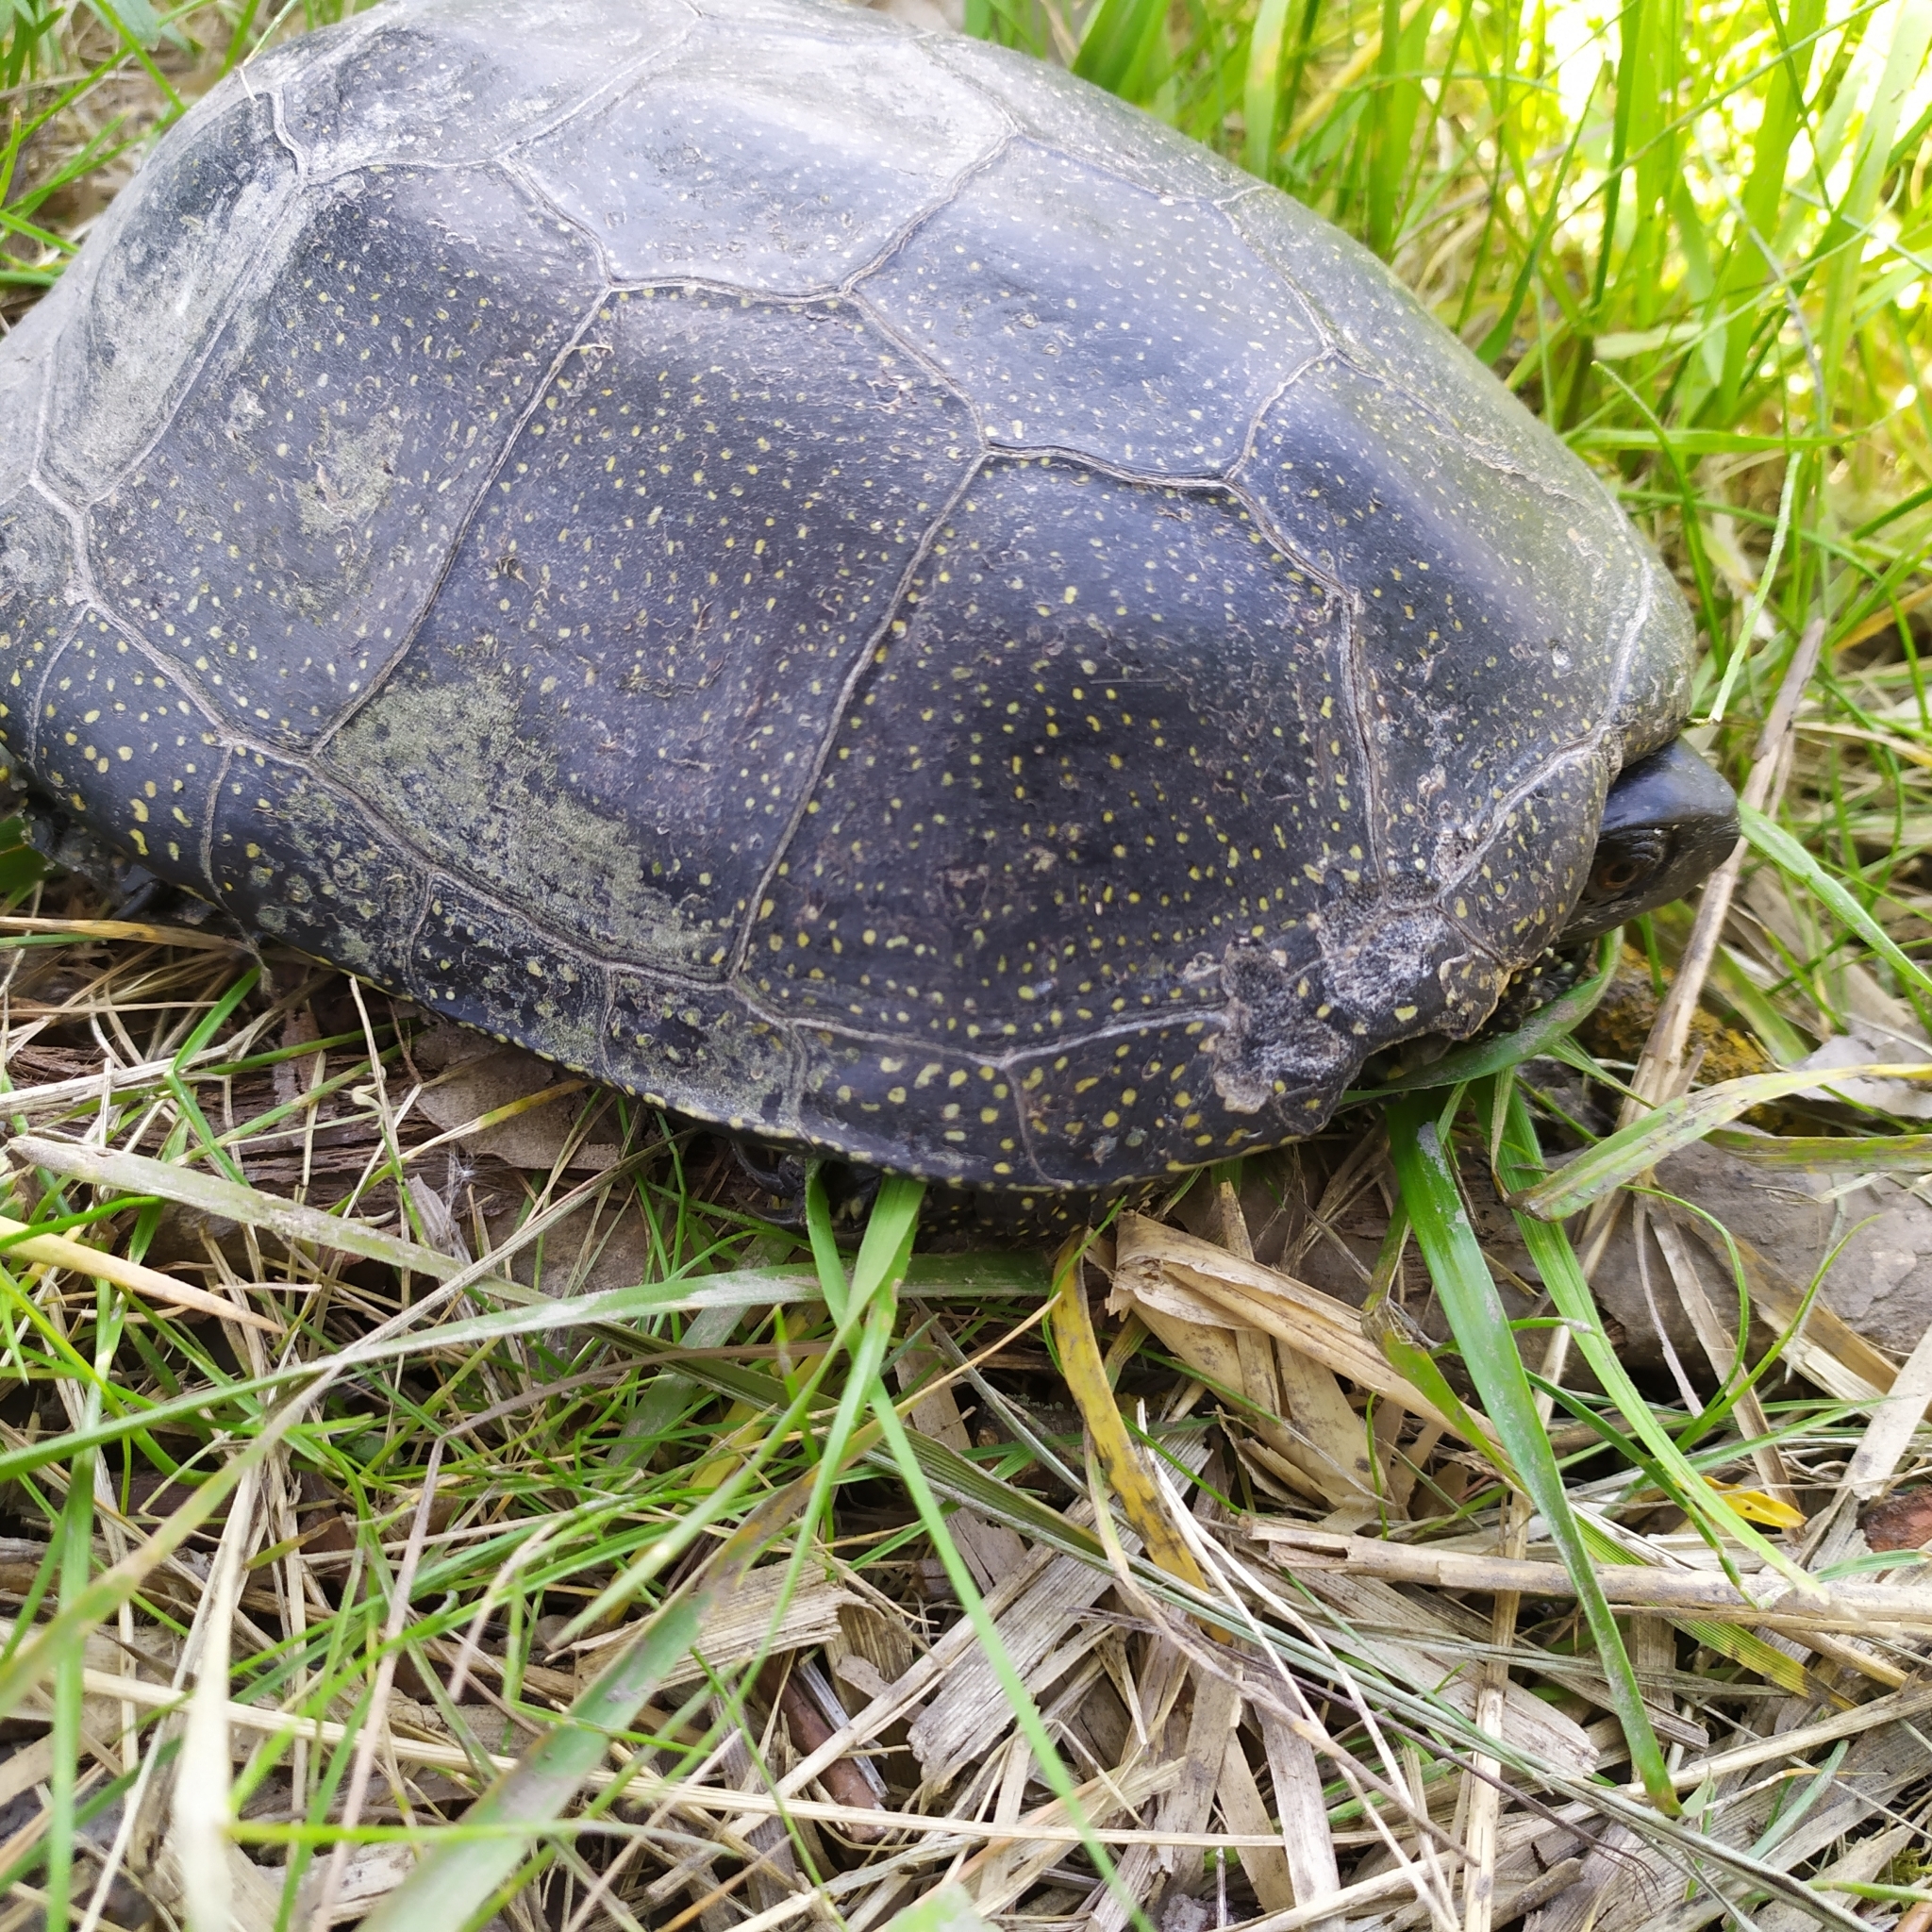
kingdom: Animalia
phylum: Chordata
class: Testudines
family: Emydidae
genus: Emys
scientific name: Emys orbicularis
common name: European pond turtle
